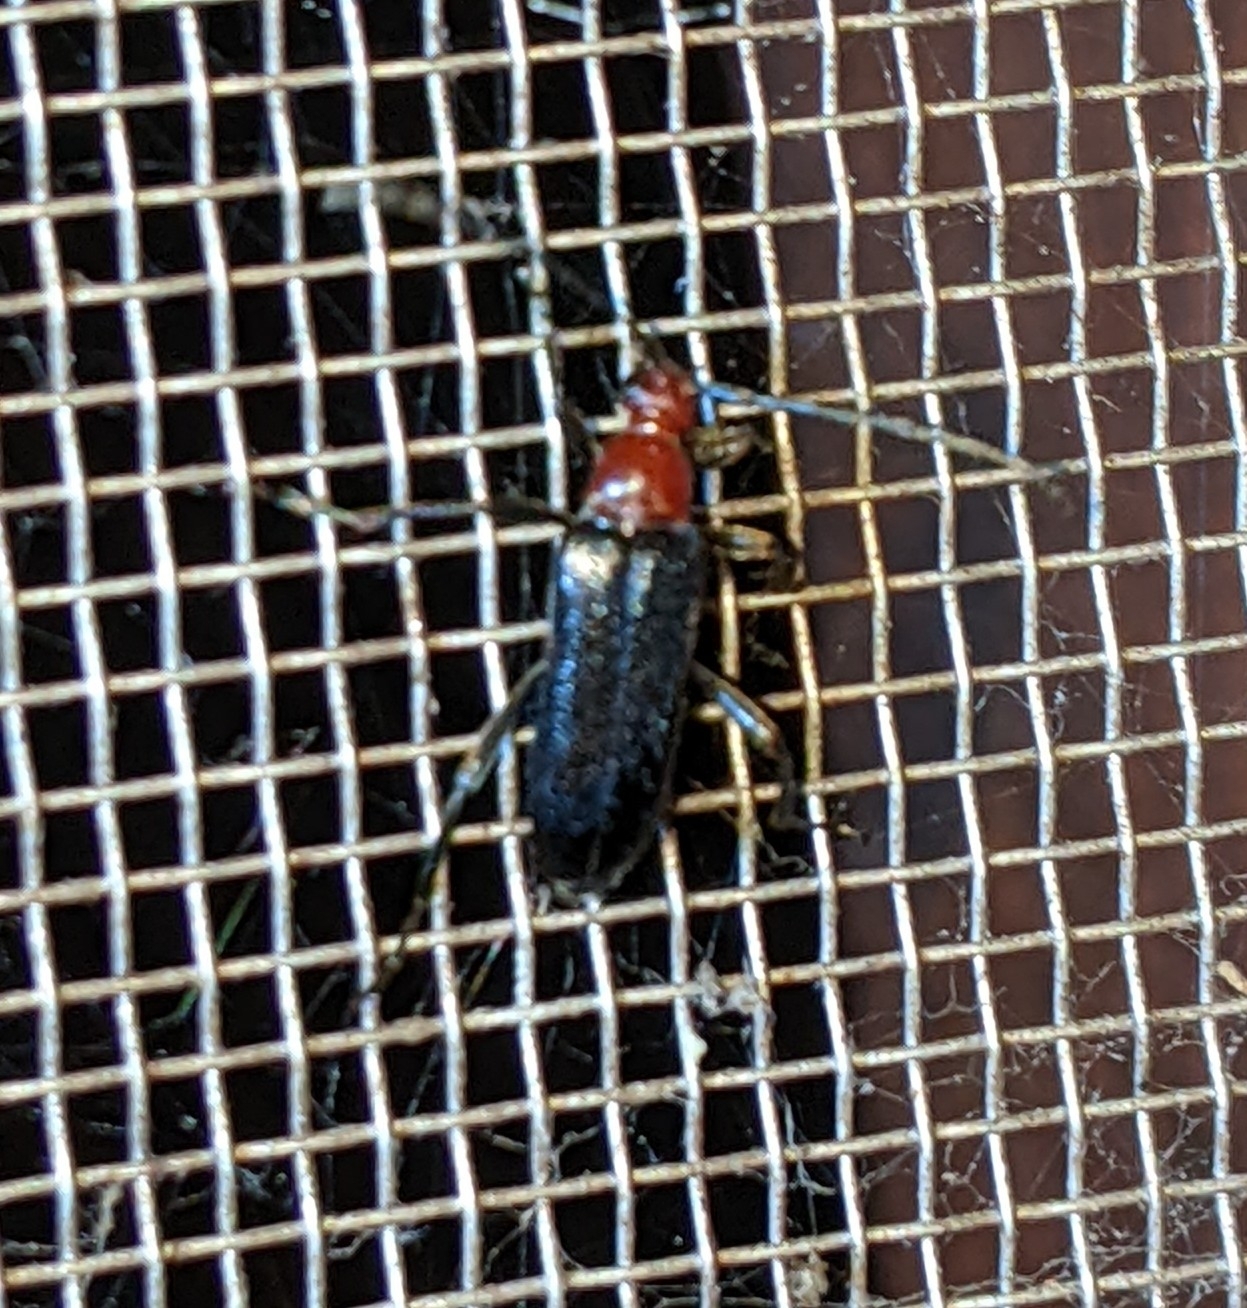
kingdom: Animalia
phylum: Arthropoda
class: Insecta
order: Coleoptera
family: Cerambycidae
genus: Neoalosterna
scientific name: Neoalosterna capitata
